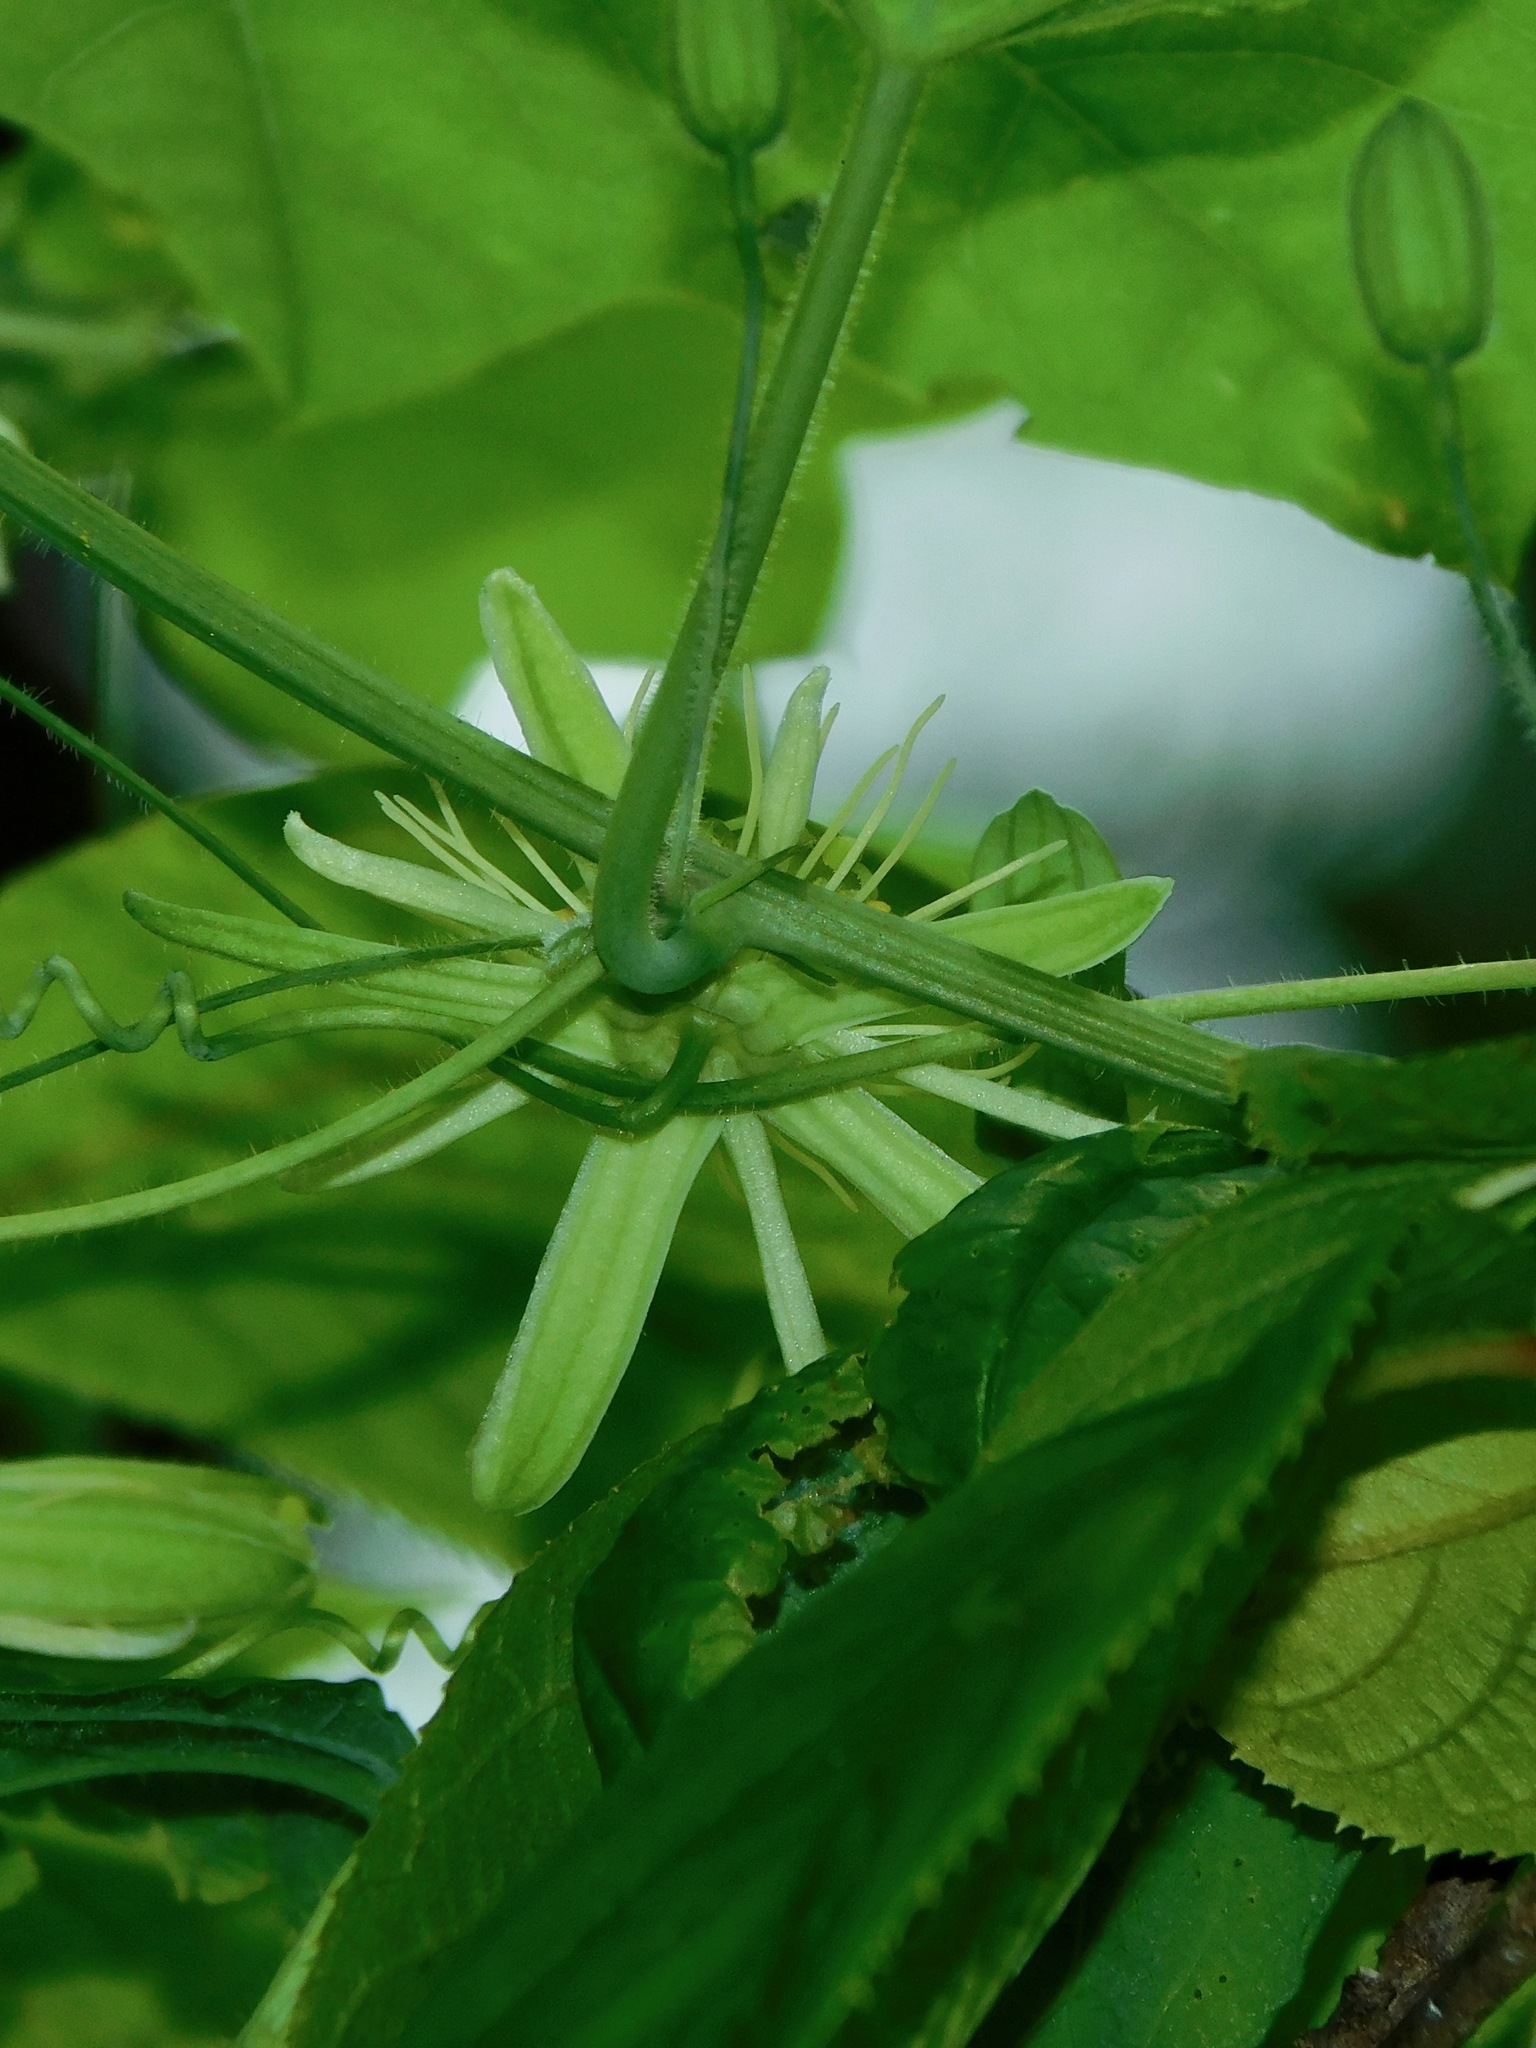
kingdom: Plantae
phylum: Tracheophyta
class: Magnoliopsida
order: Malpighiales
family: Passifloraceae
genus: Passiflora
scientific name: Passiflora lutea
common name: Yellow passionflower
